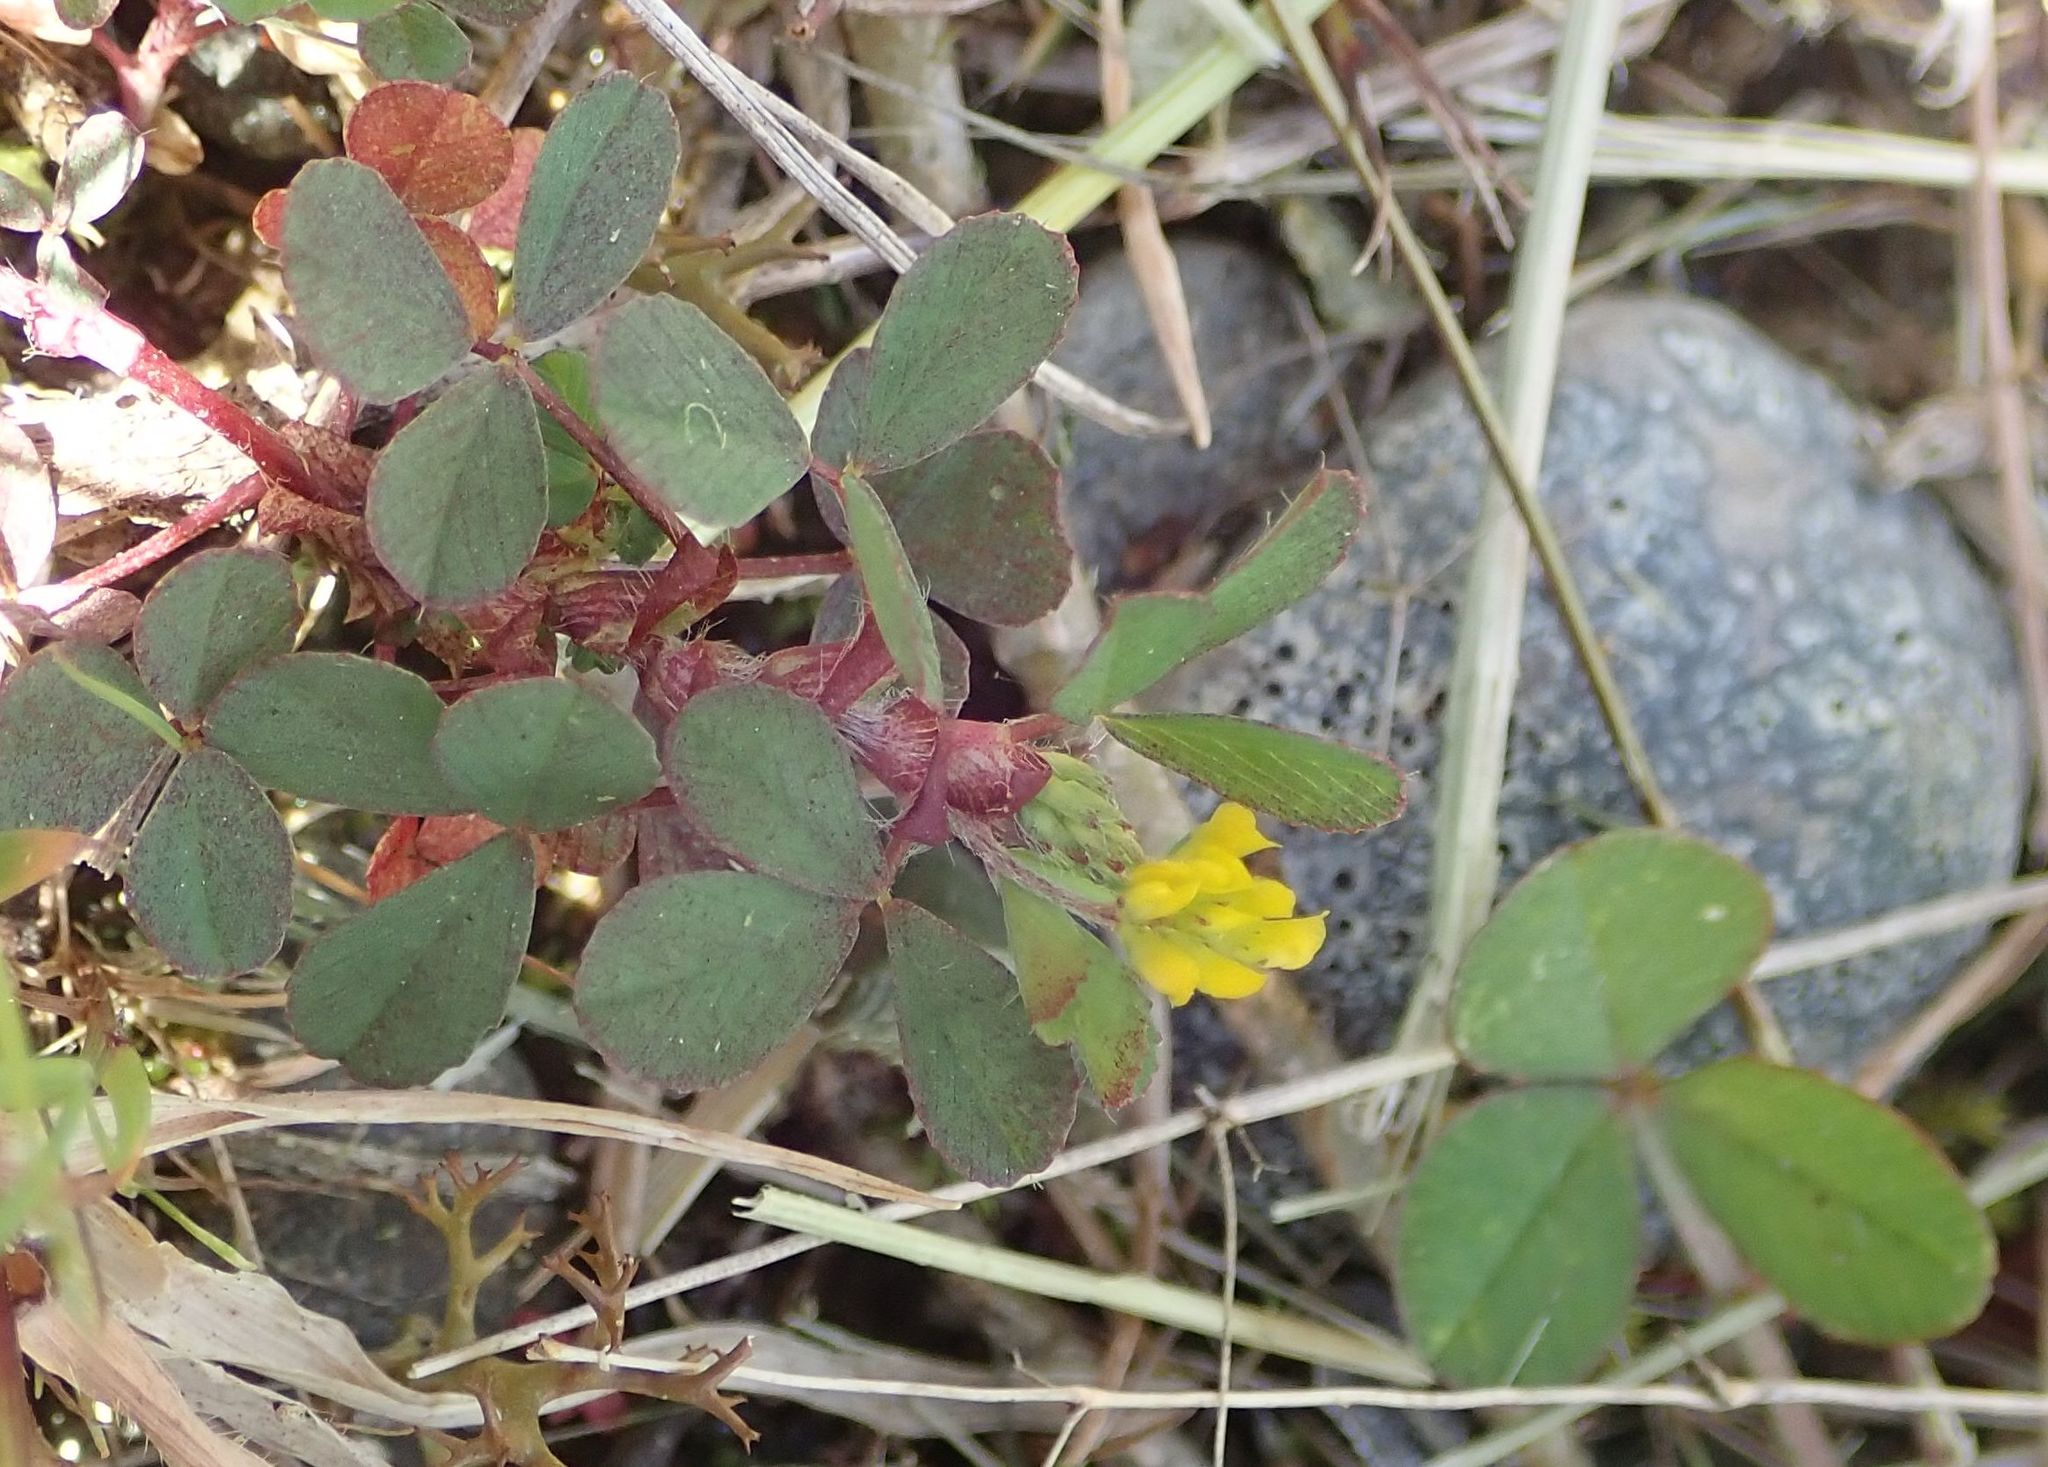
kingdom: Plantae
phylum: Tracheophyta
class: Magnoliopsida
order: Fabales
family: Fabaceae
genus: Trifolium
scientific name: Trifolium dubium
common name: Suckling clover
